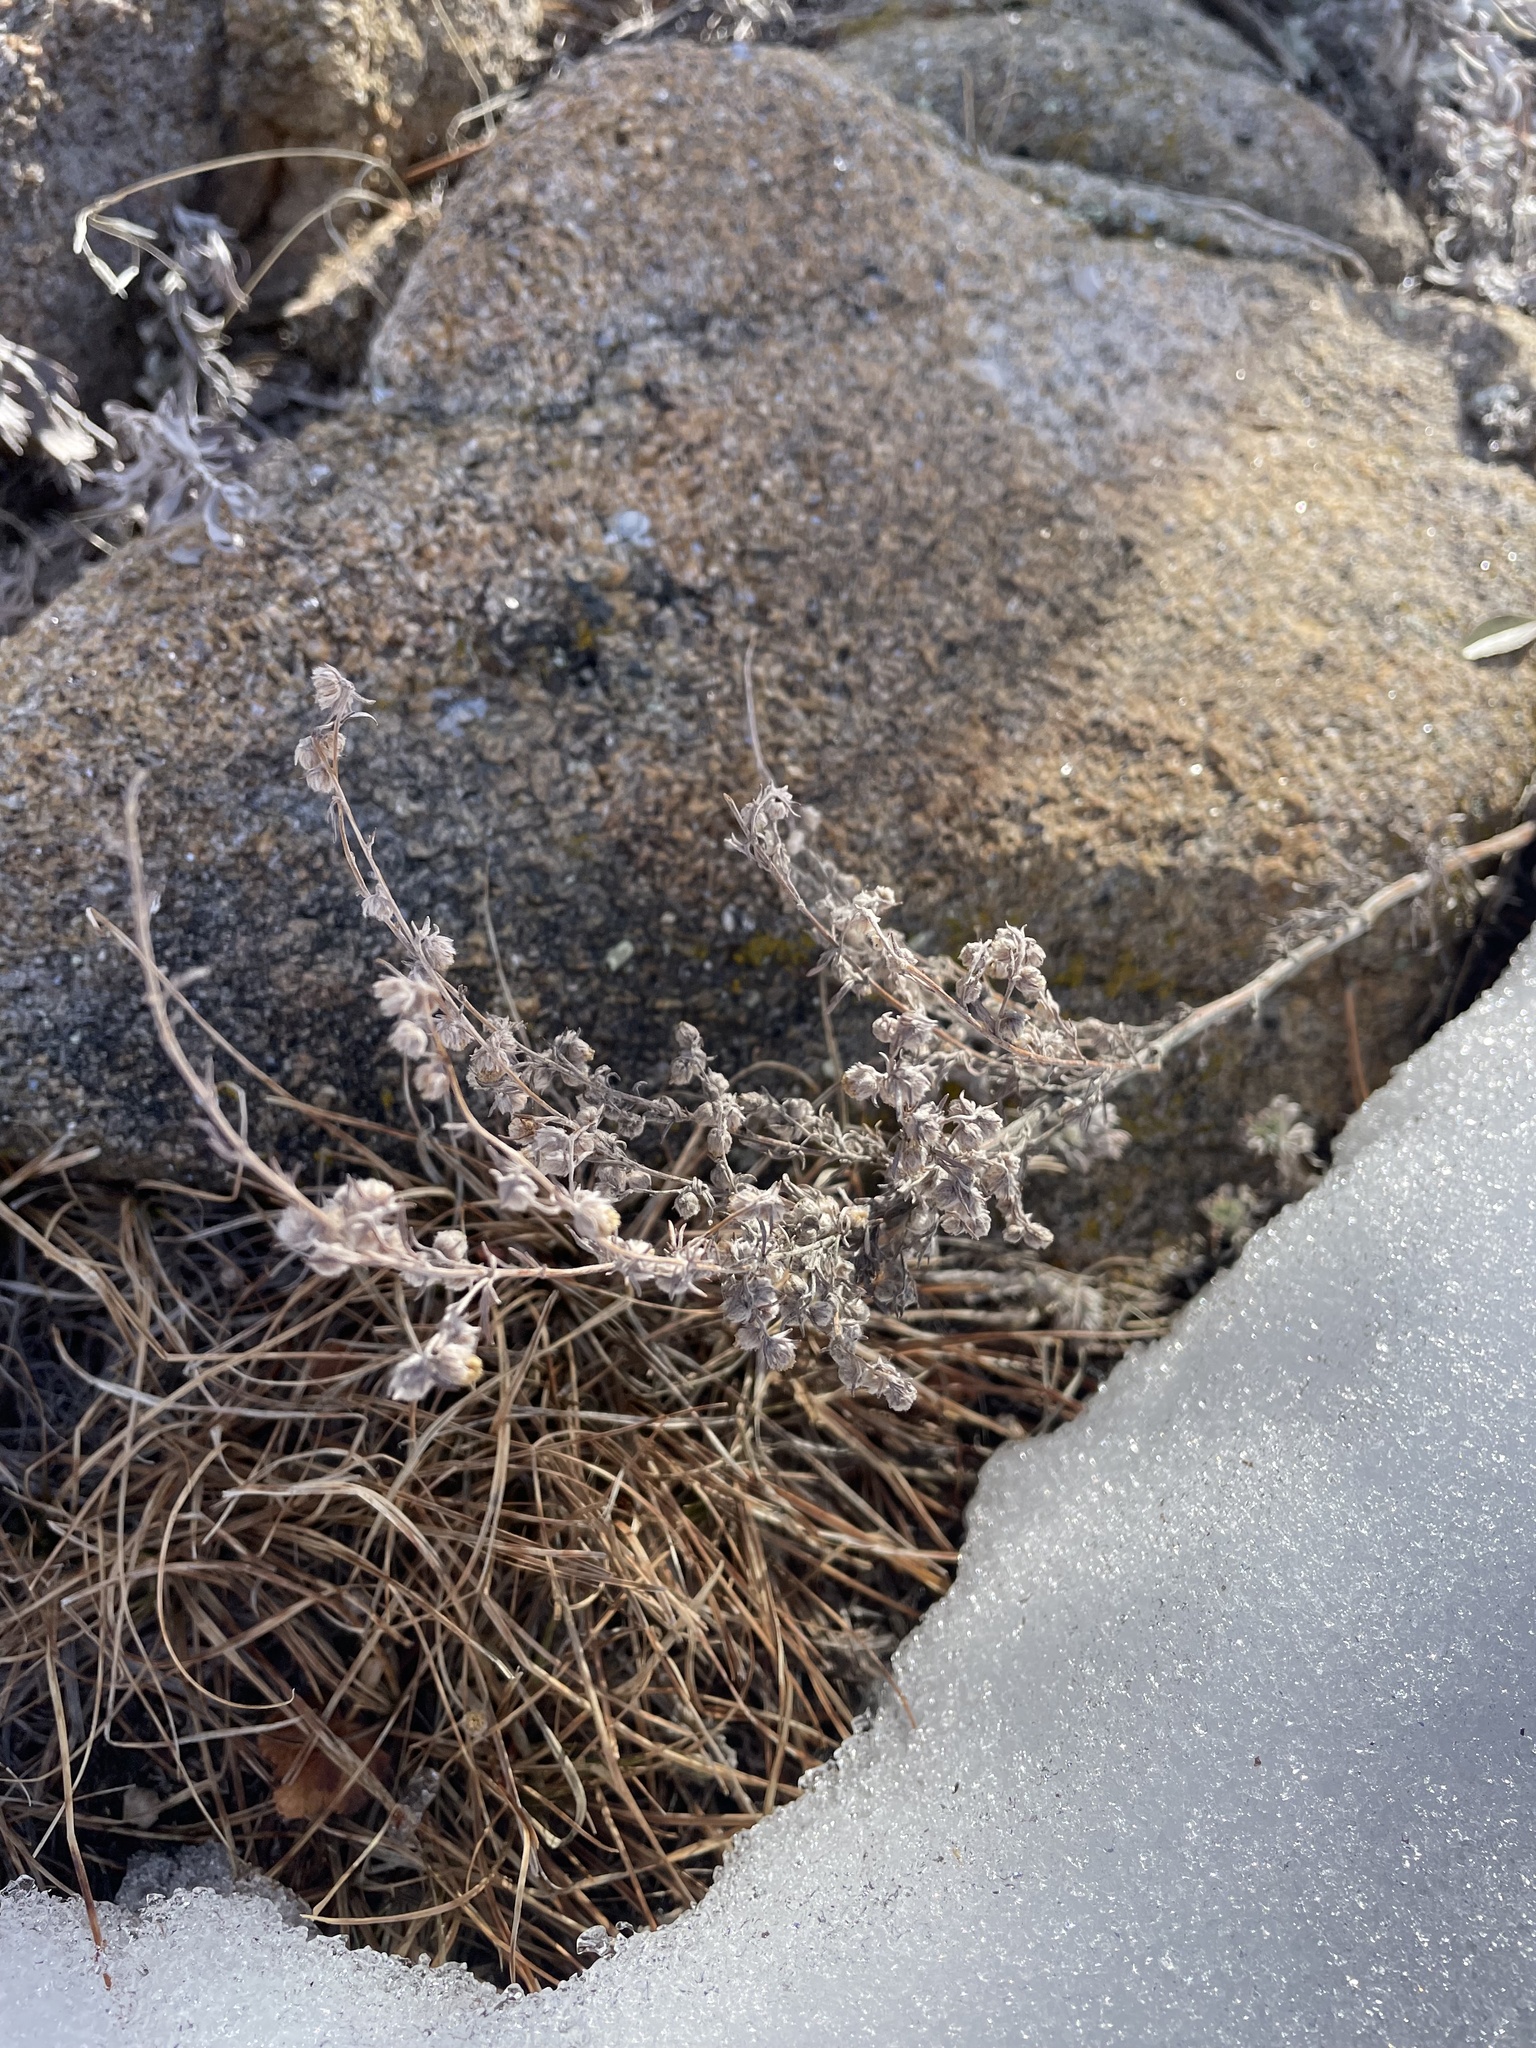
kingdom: Plantae
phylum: Tracheophyta
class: Magnoliopsida
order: Asterales
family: Asteraceae
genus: Artemisia
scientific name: Artemisia frigida
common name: Prairie sagewort
